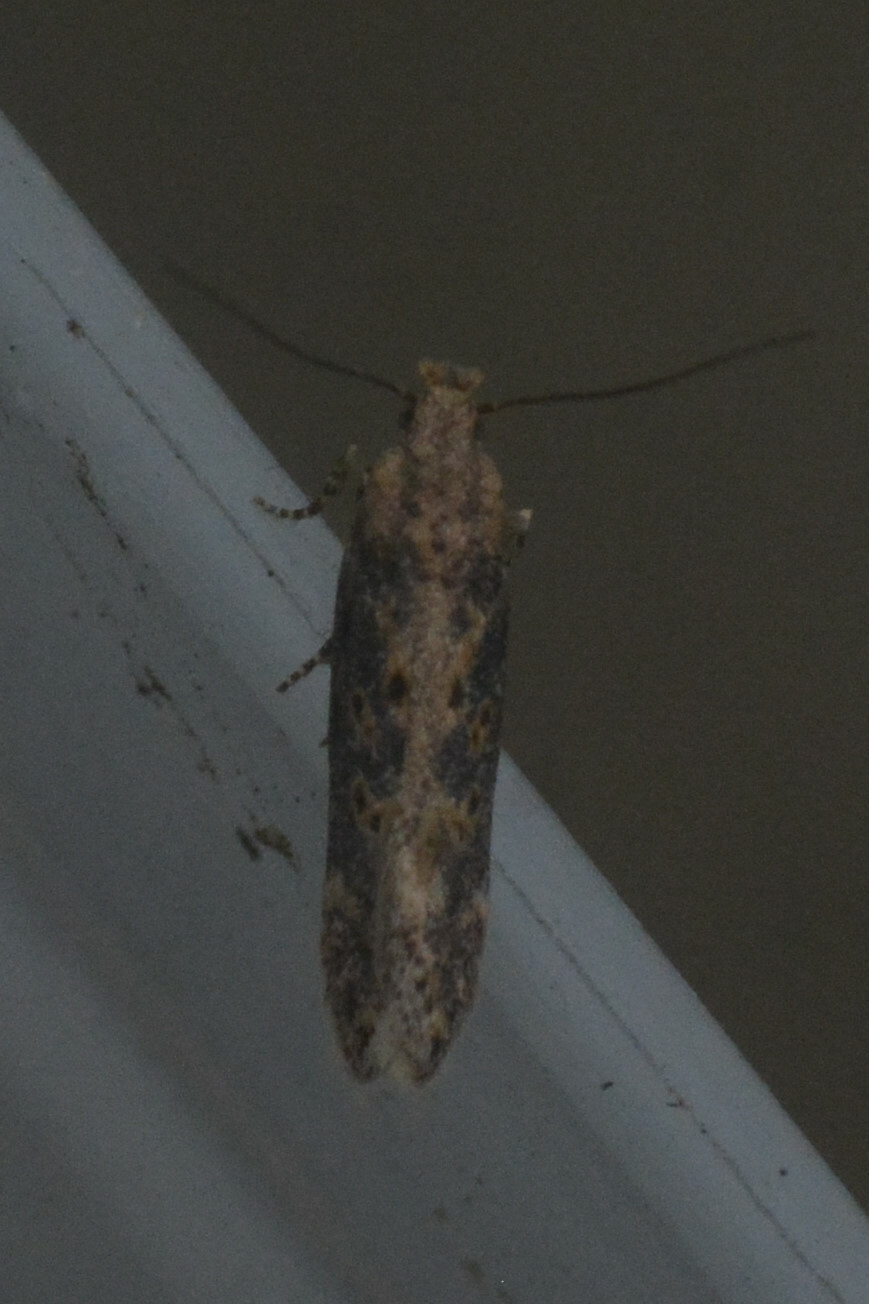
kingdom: Animalia
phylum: Arthropoda
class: Insecta
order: Lepidoptera
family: Gelechiidae
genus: Scrobipalpa
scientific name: Scrobipalpa ocellatella
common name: Beet moth
